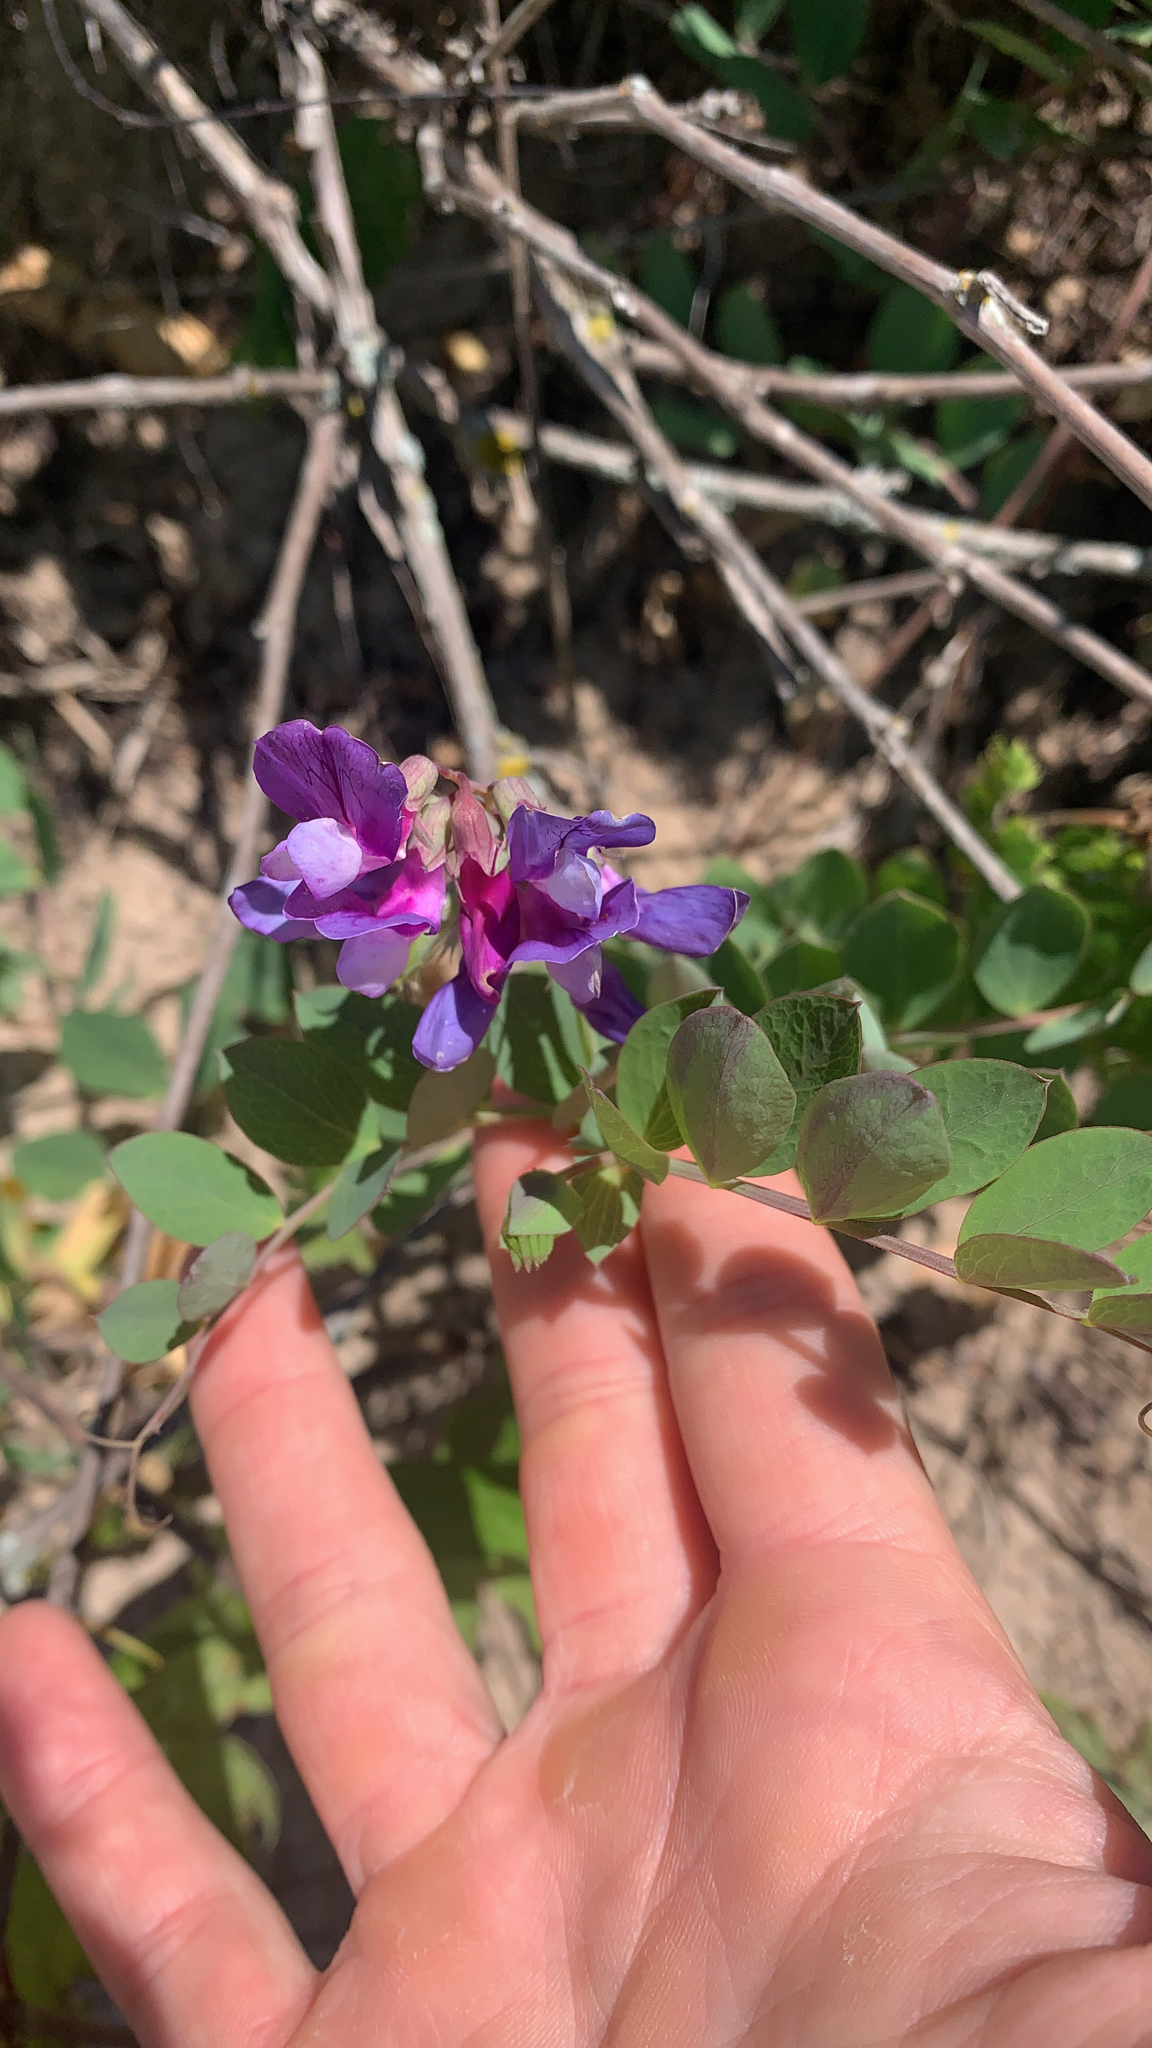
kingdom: Plantae
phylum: Tracheophyta
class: Magnoliopsida
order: Fabales
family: Fabaceae
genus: Lathyrus
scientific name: Lathyrus japonicus
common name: Sea pea
